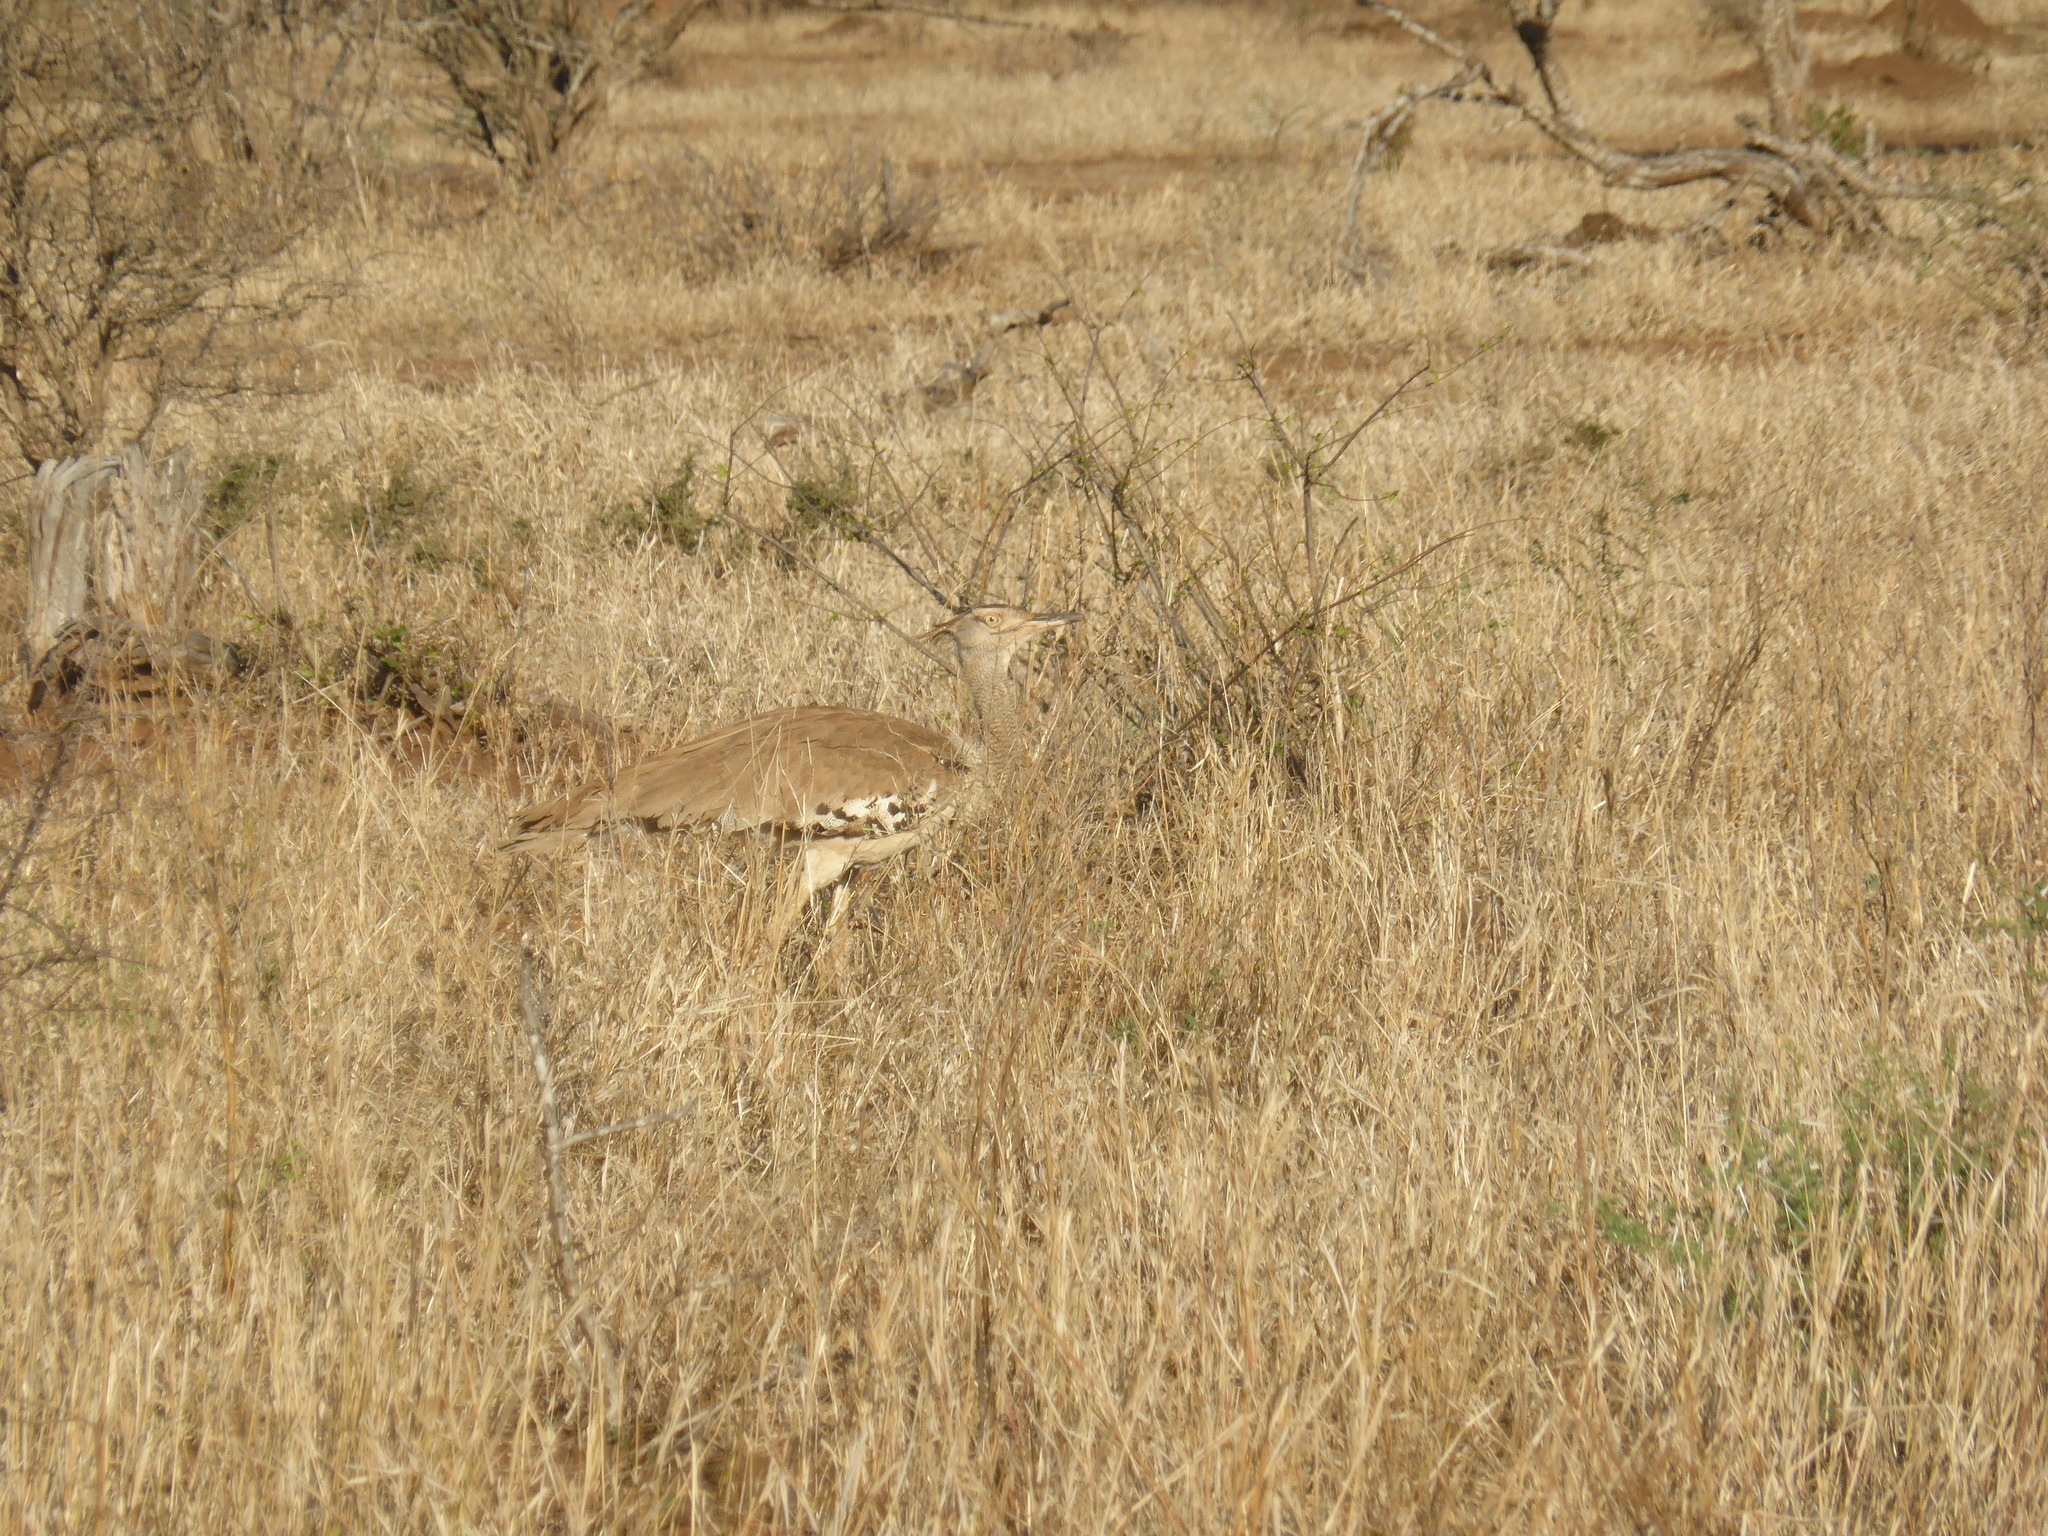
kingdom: Animalia
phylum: Chordata
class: Aves
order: Otidiformes
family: Otididae
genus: Ardeotis
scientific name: Ardeotis kori
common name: Kori bustard
